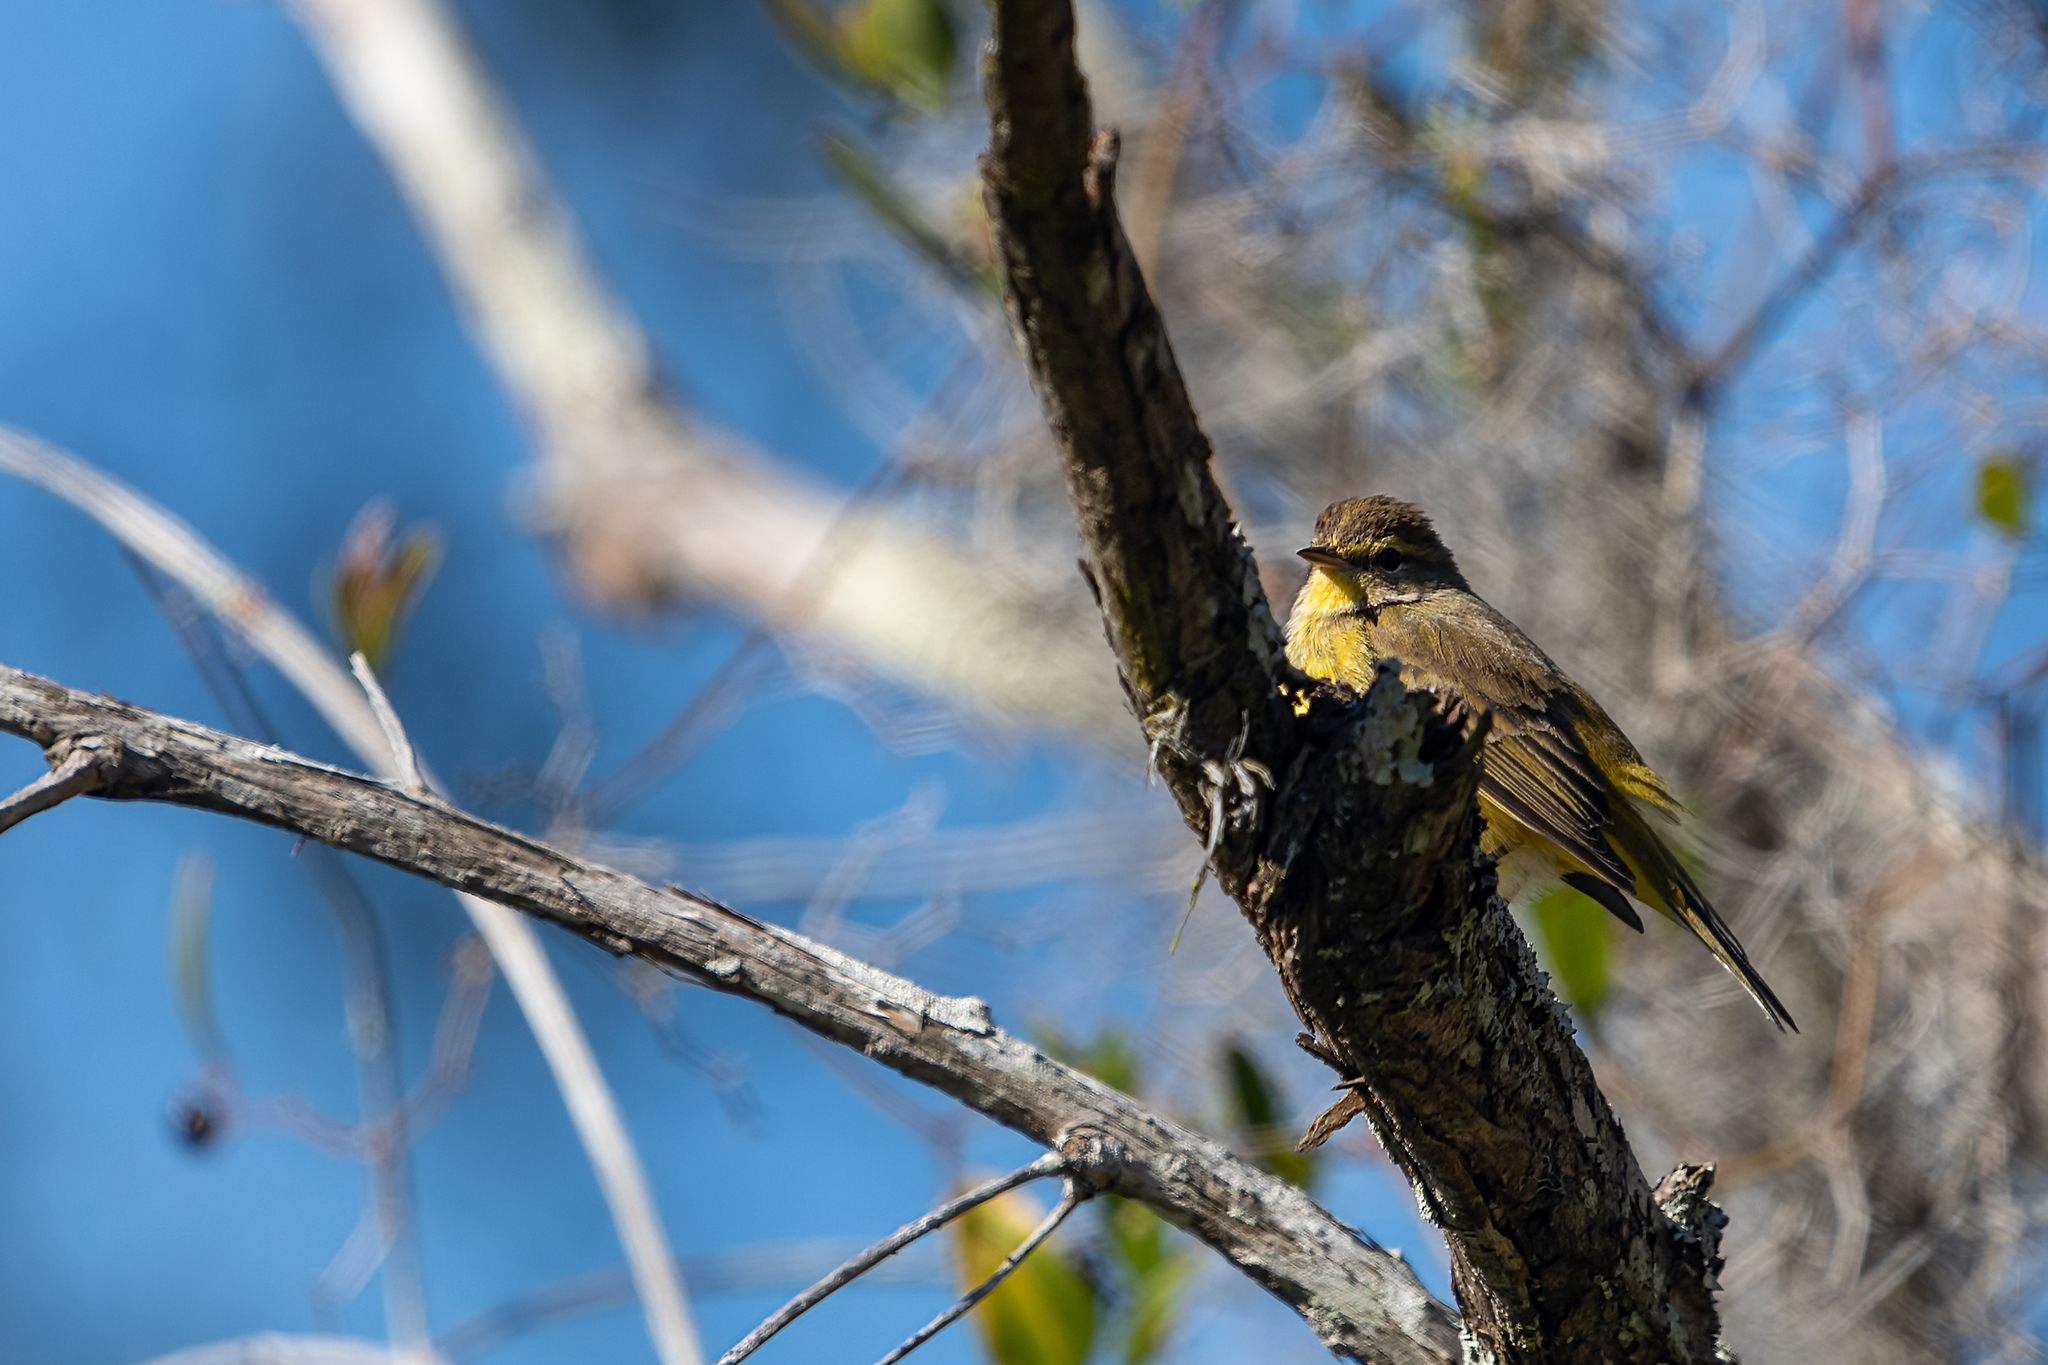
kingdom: Animalia
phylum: Chordata
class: Aves
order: Passeriformes
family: Parulidae
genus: Setophaga
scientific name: Setophaga palmarum
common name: Palm warbler
